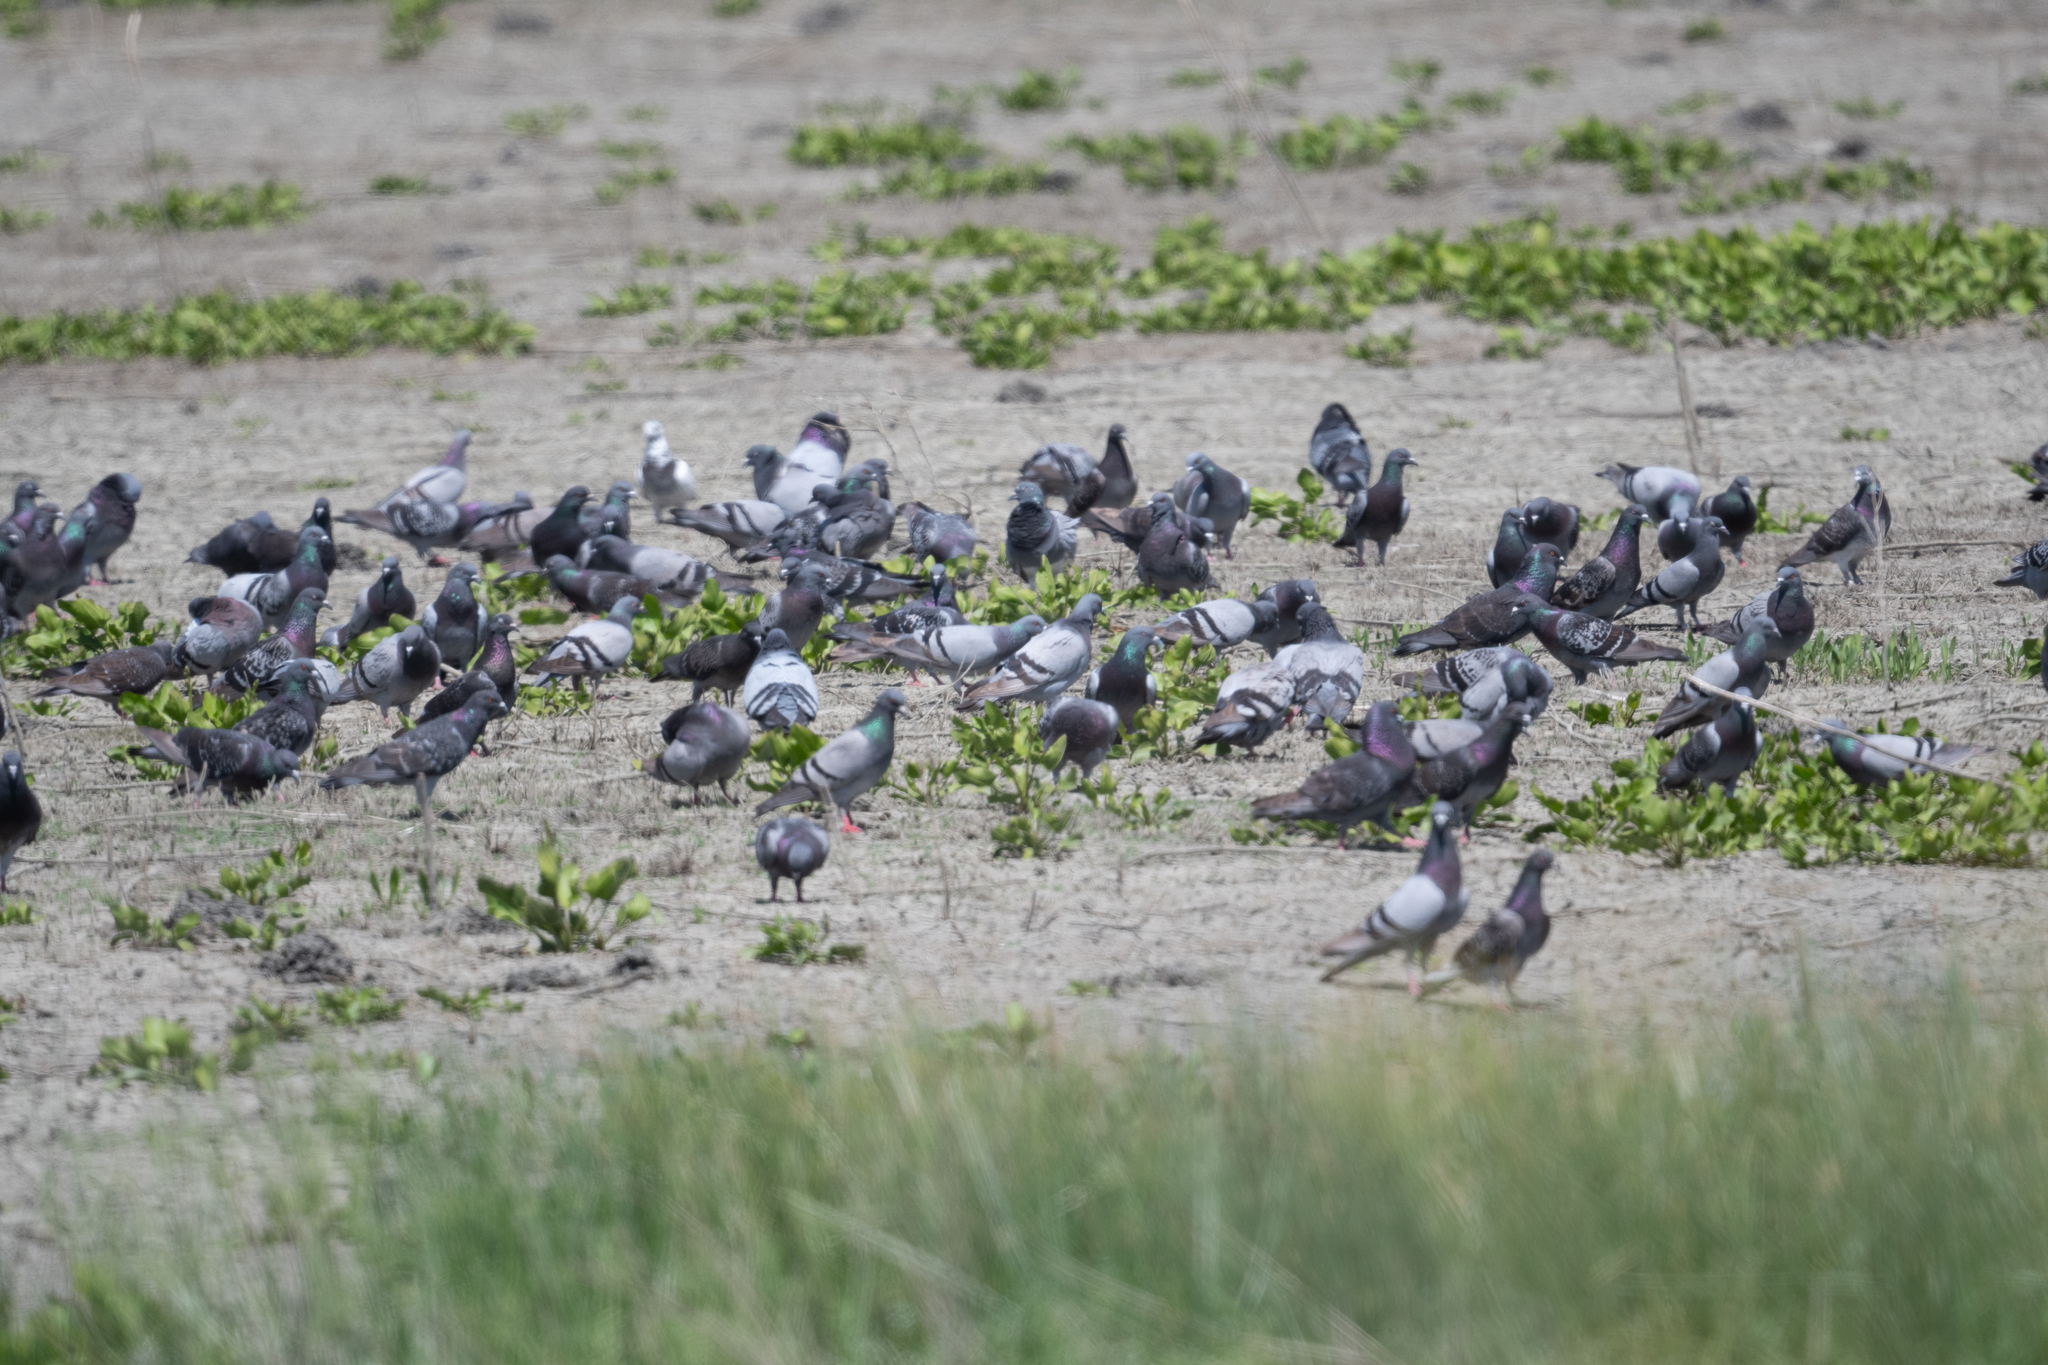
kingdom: Animalia
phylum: Chordata
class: Aves
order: Columbiformes
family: Columbidae
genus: Columba
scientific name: Columba livia
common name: Rock pigeon
